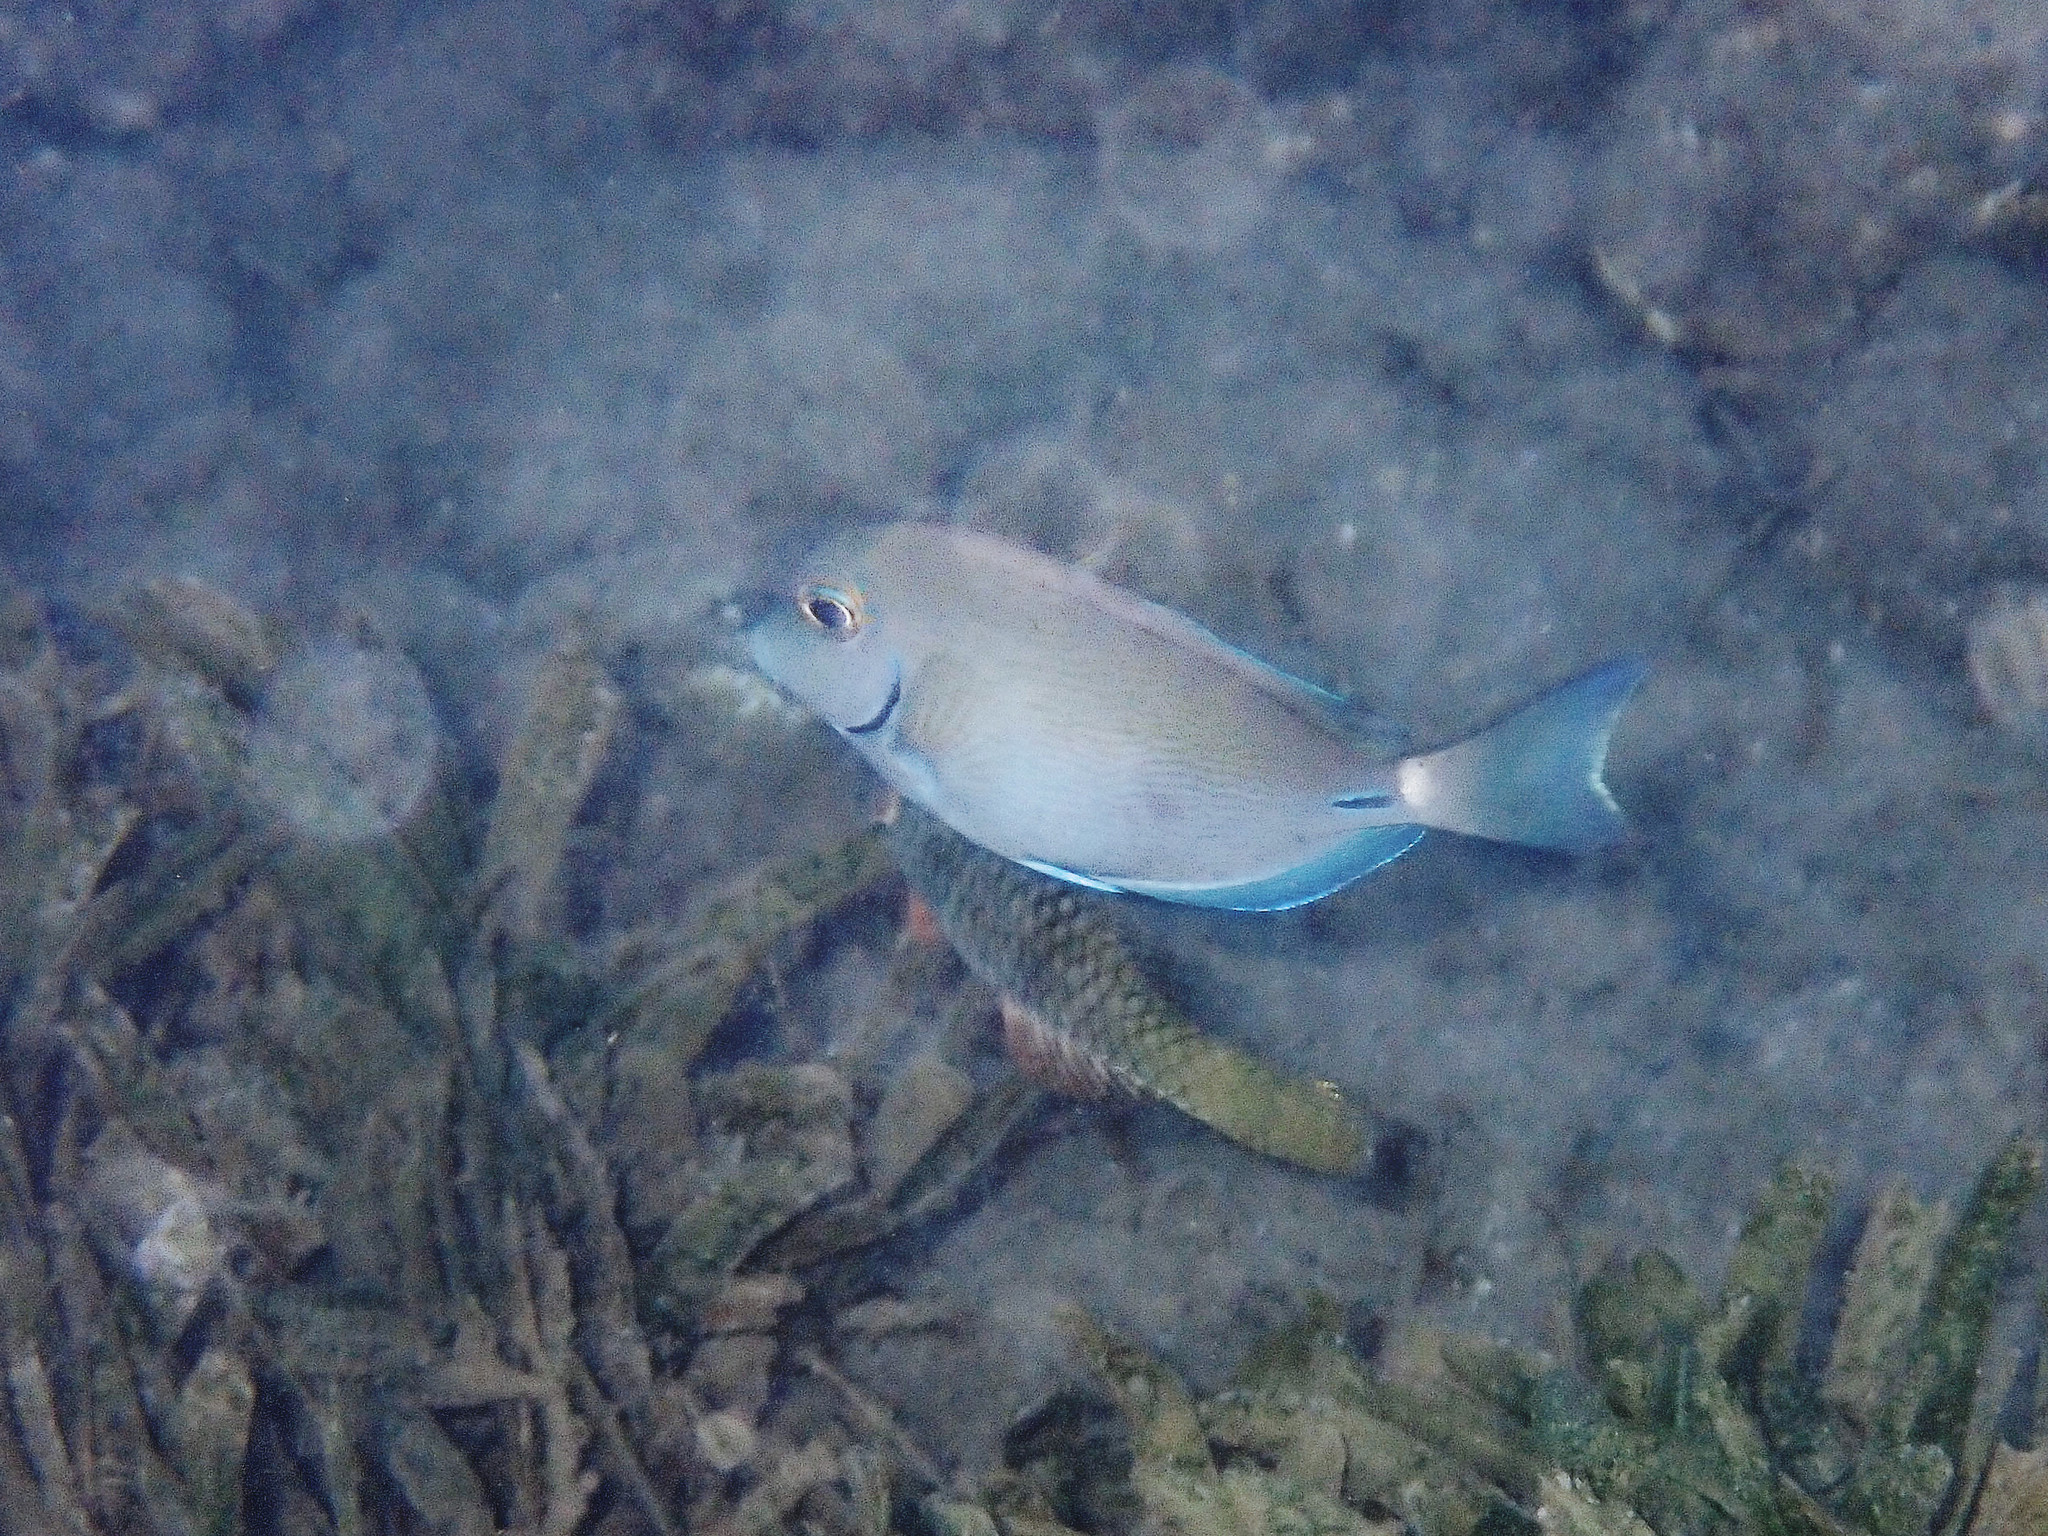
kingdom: Animalia
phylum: Chordata
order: Perciformes
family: Acanthuridae
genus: Acanthurus
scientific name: Acanthurus bahianus
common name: Ocean surgeon
